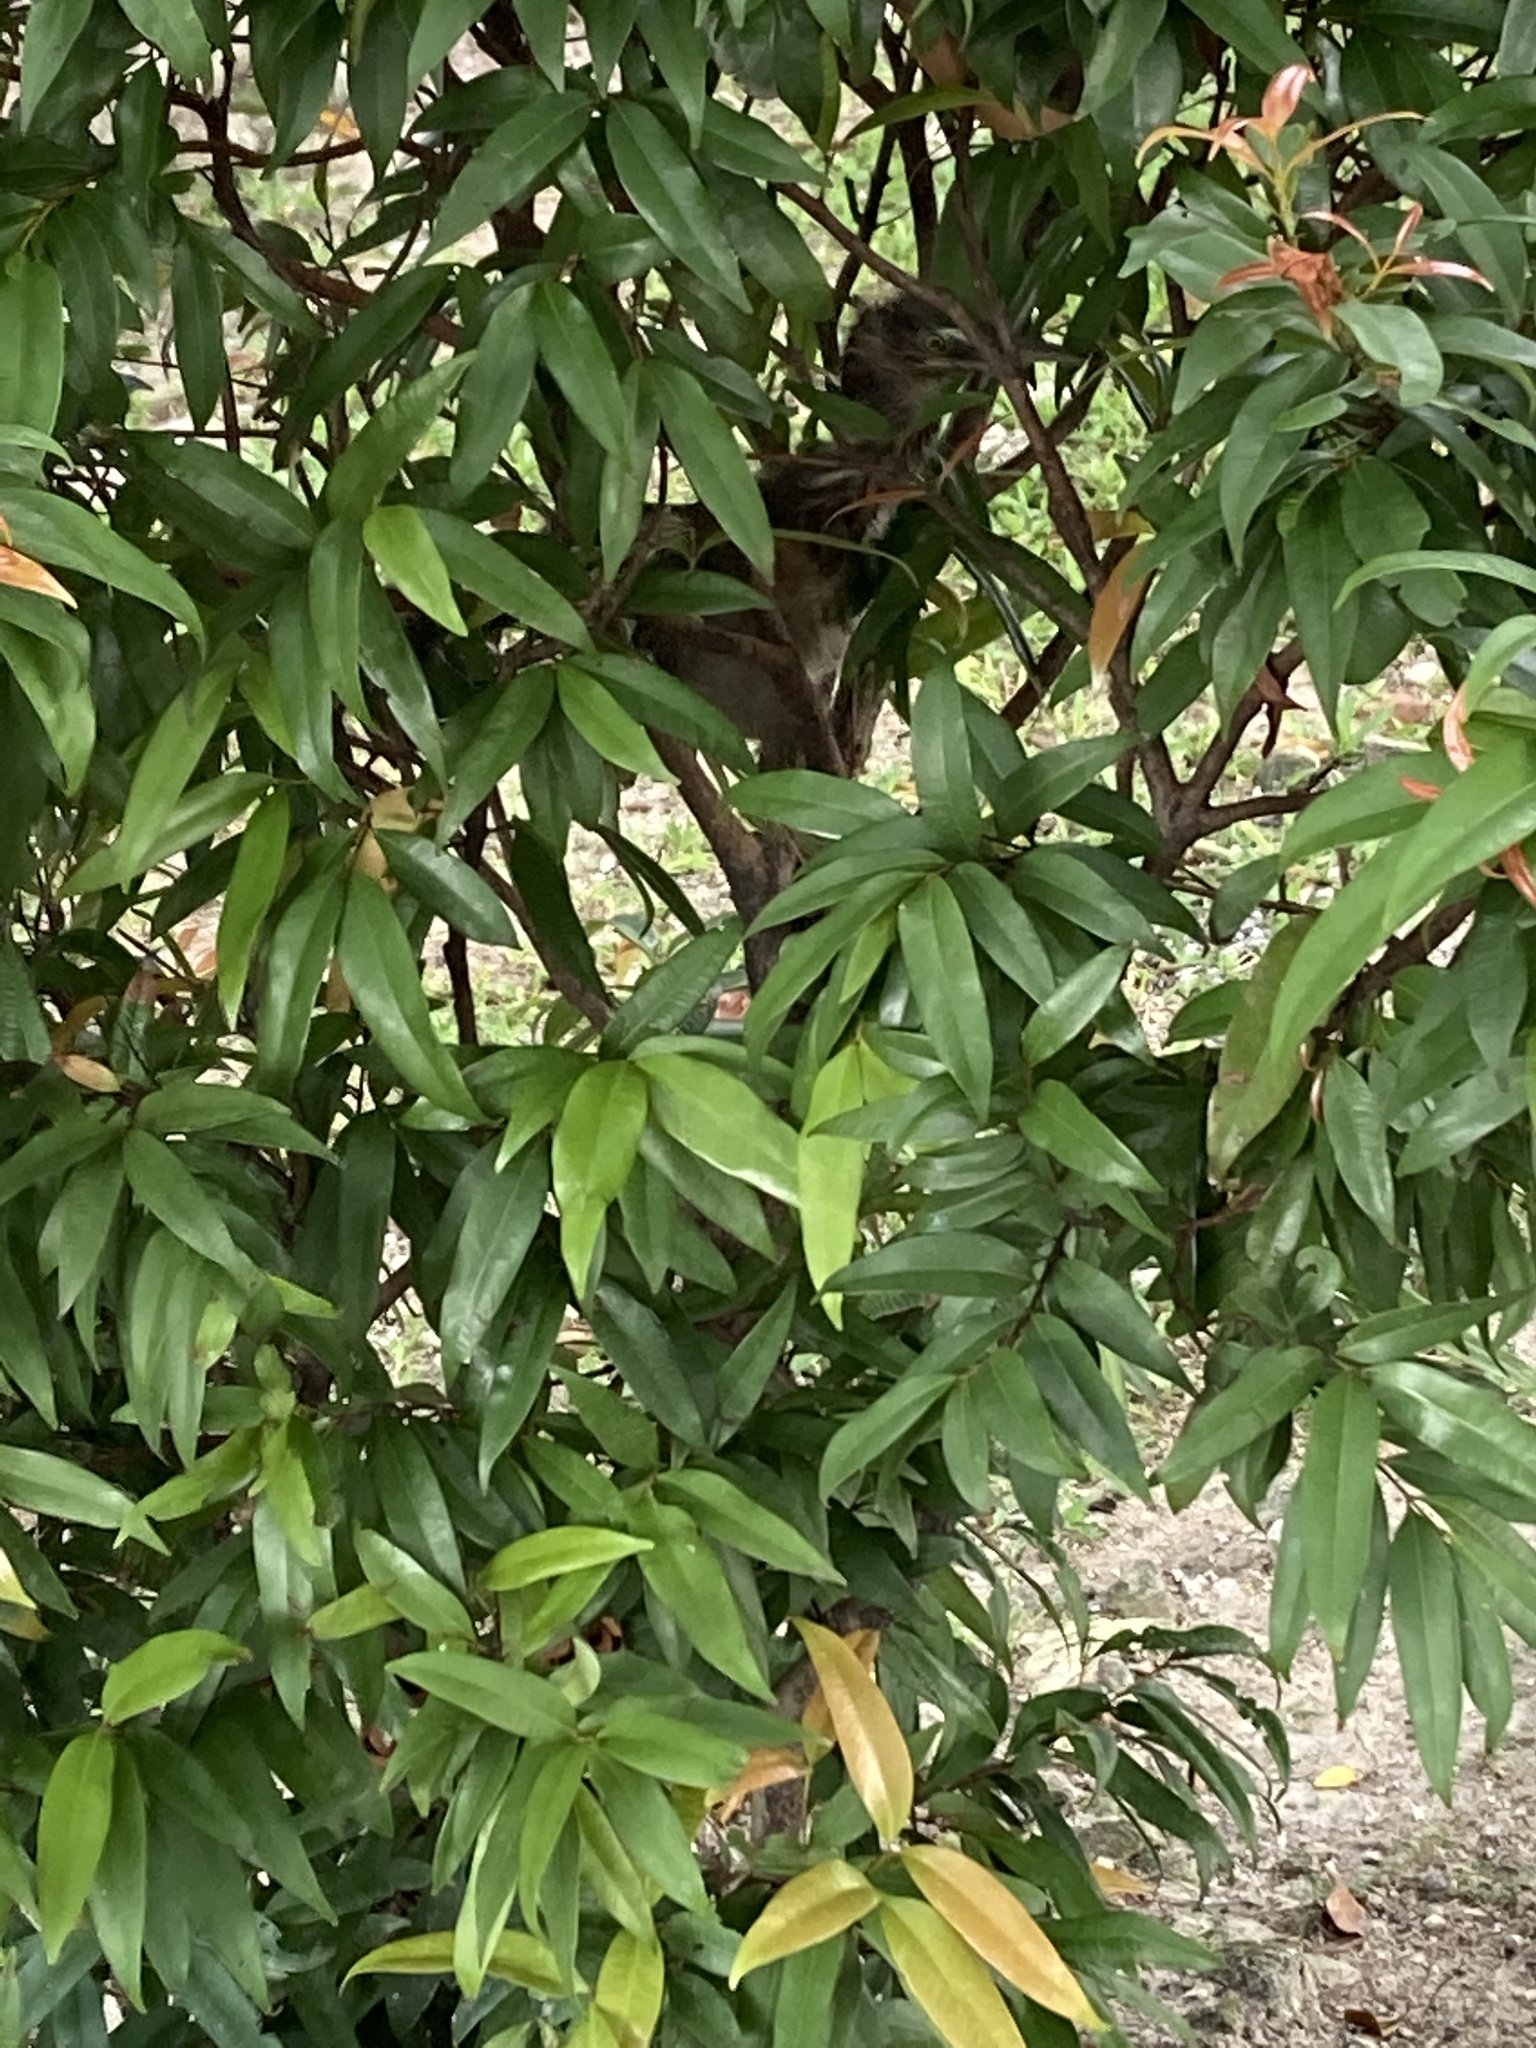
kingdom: Animalia
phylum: Chordata
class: Aves
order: Pelecaniformes
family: Ardeidae
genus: Butorides
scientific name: Butorides striata
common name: Striated heron
